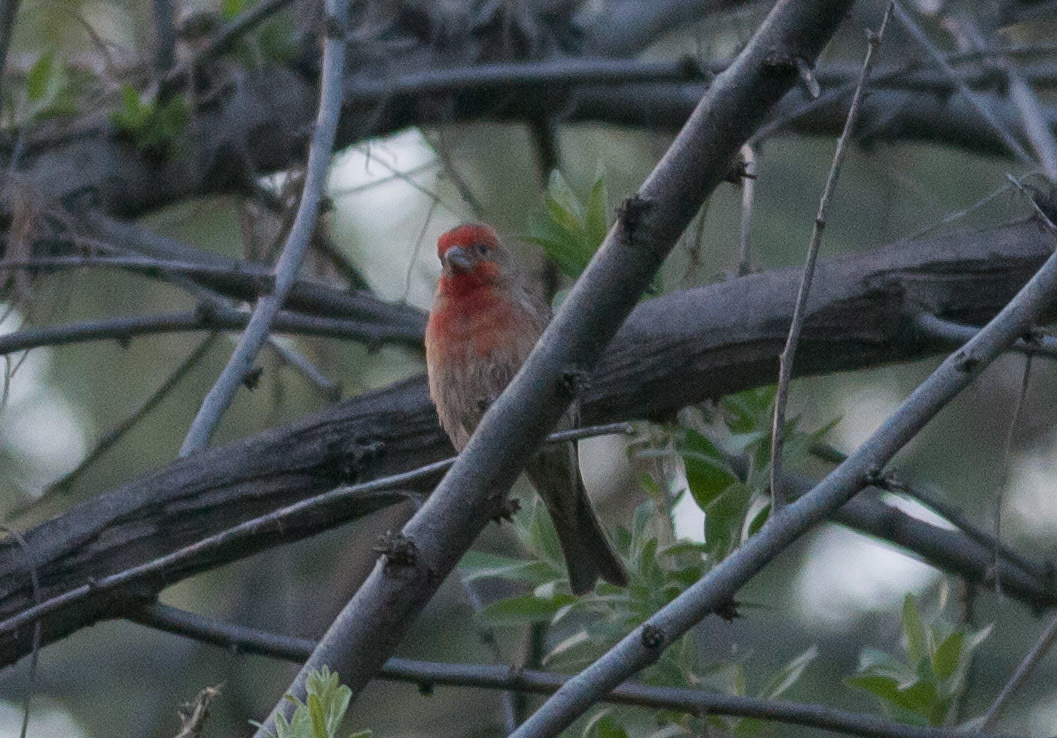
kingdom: Animalia
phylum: Chordata
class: Aves
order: Passeriformes
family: Fringillidae
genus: Haemorhous
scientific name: Haemorhous mexicanus
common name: House finch
